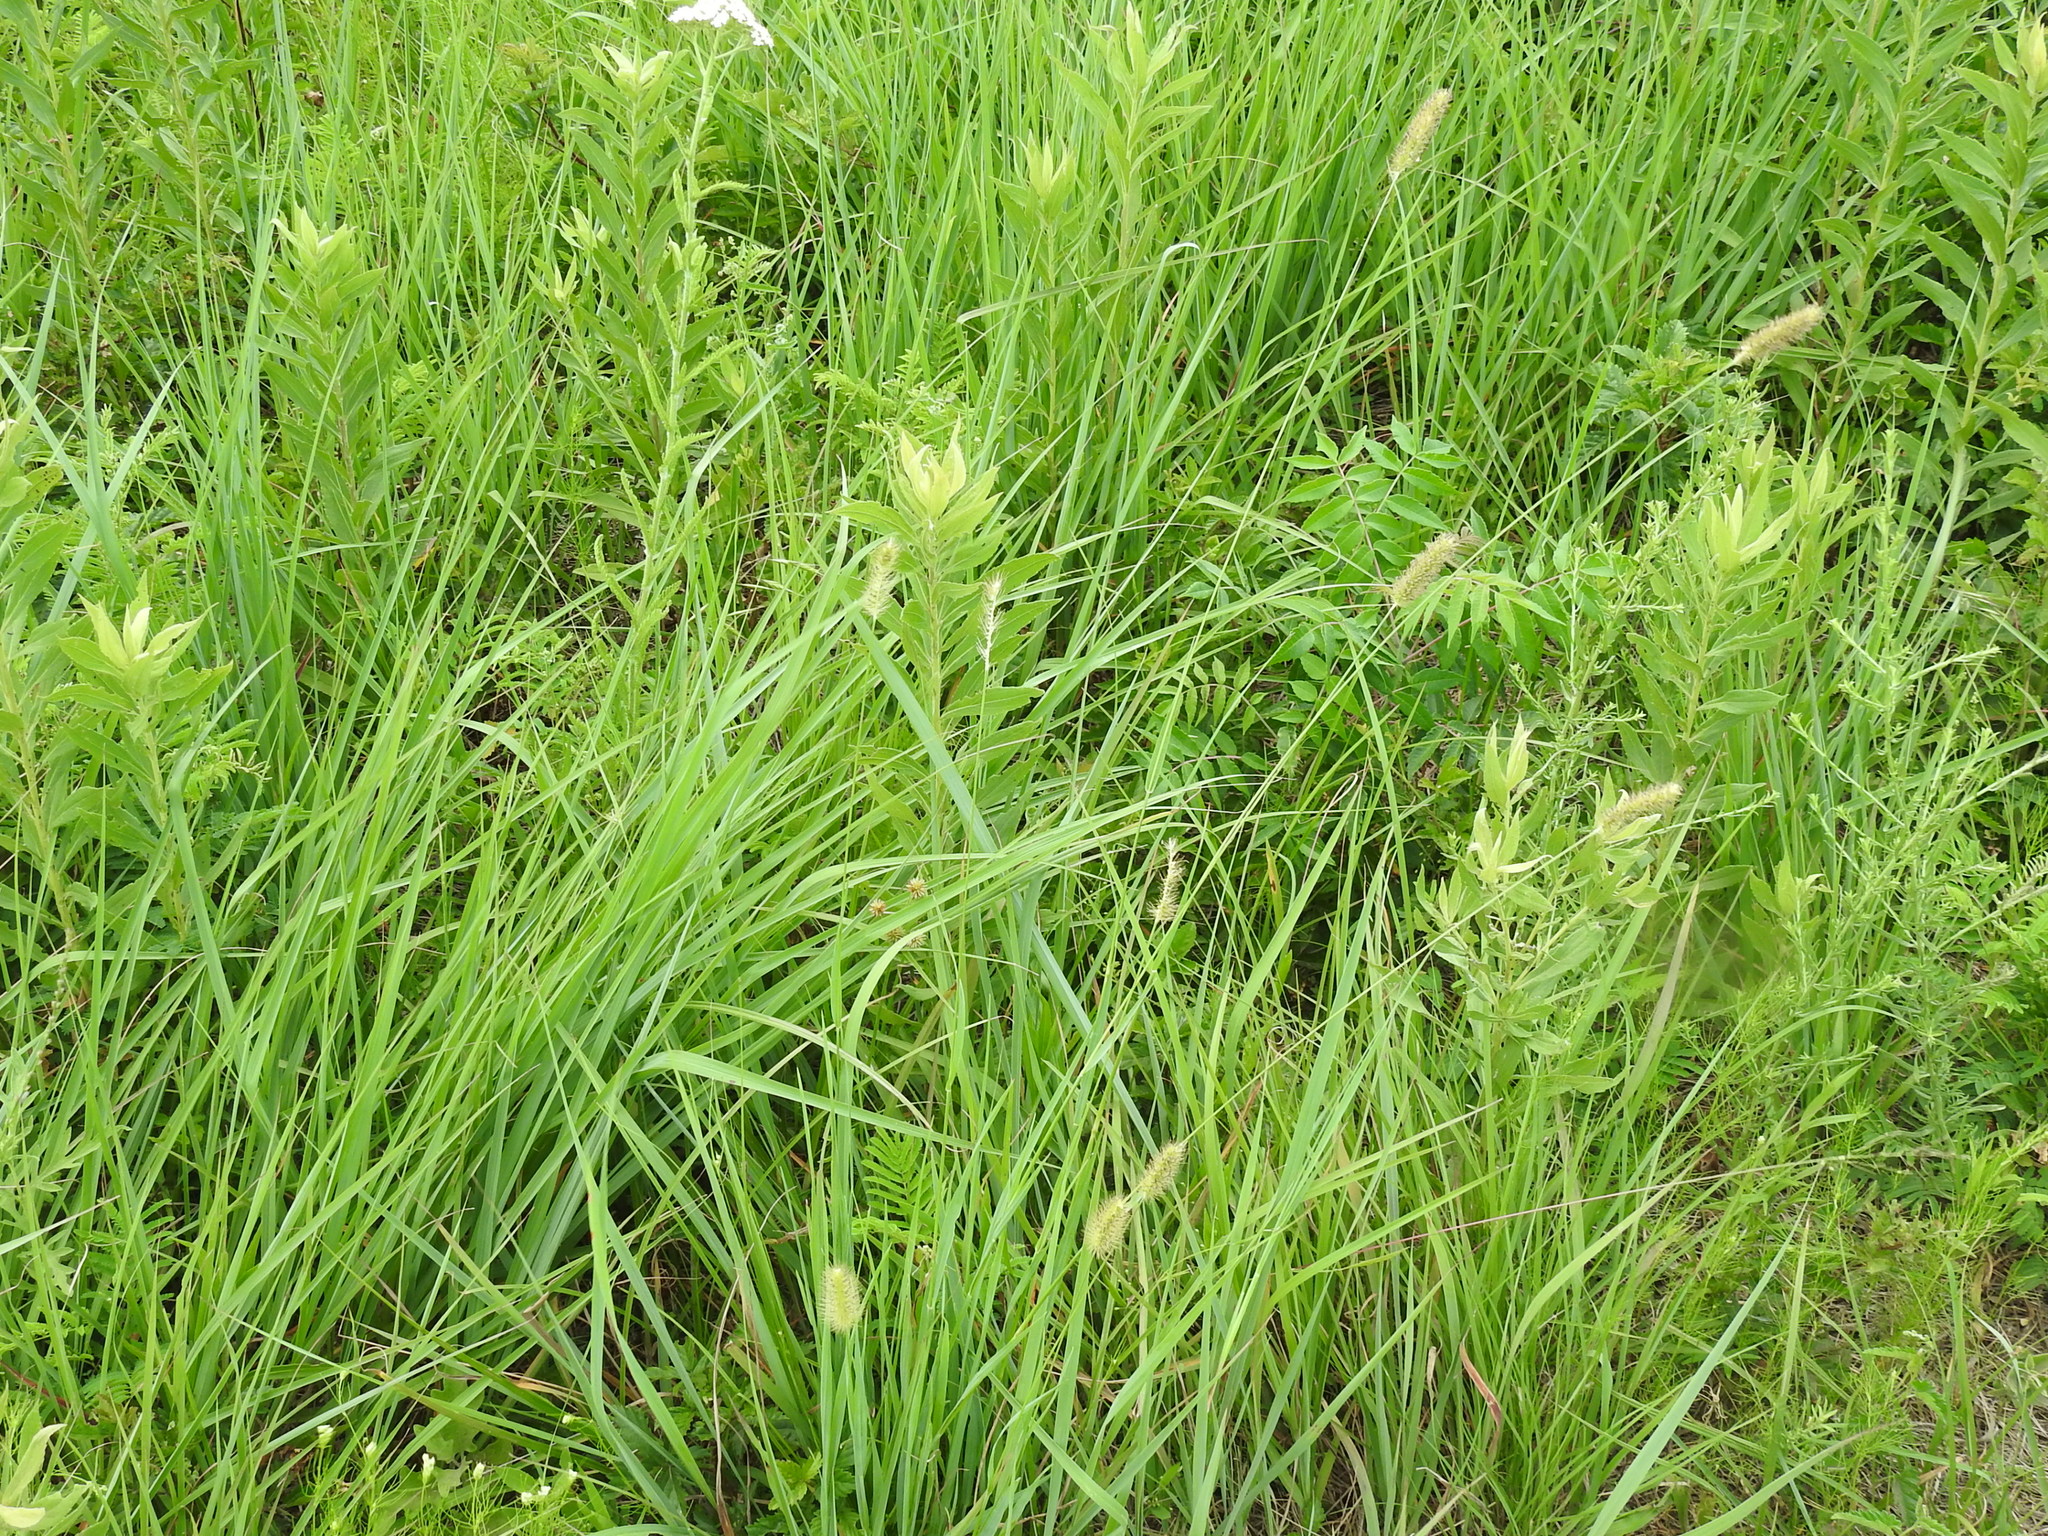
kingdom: Plantae
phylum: Tracheophyta
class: Liliopsida
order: Poales
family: Poaceae
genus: Setaria
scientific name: Setaria parviflora
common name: Knotroot bristle-grass
